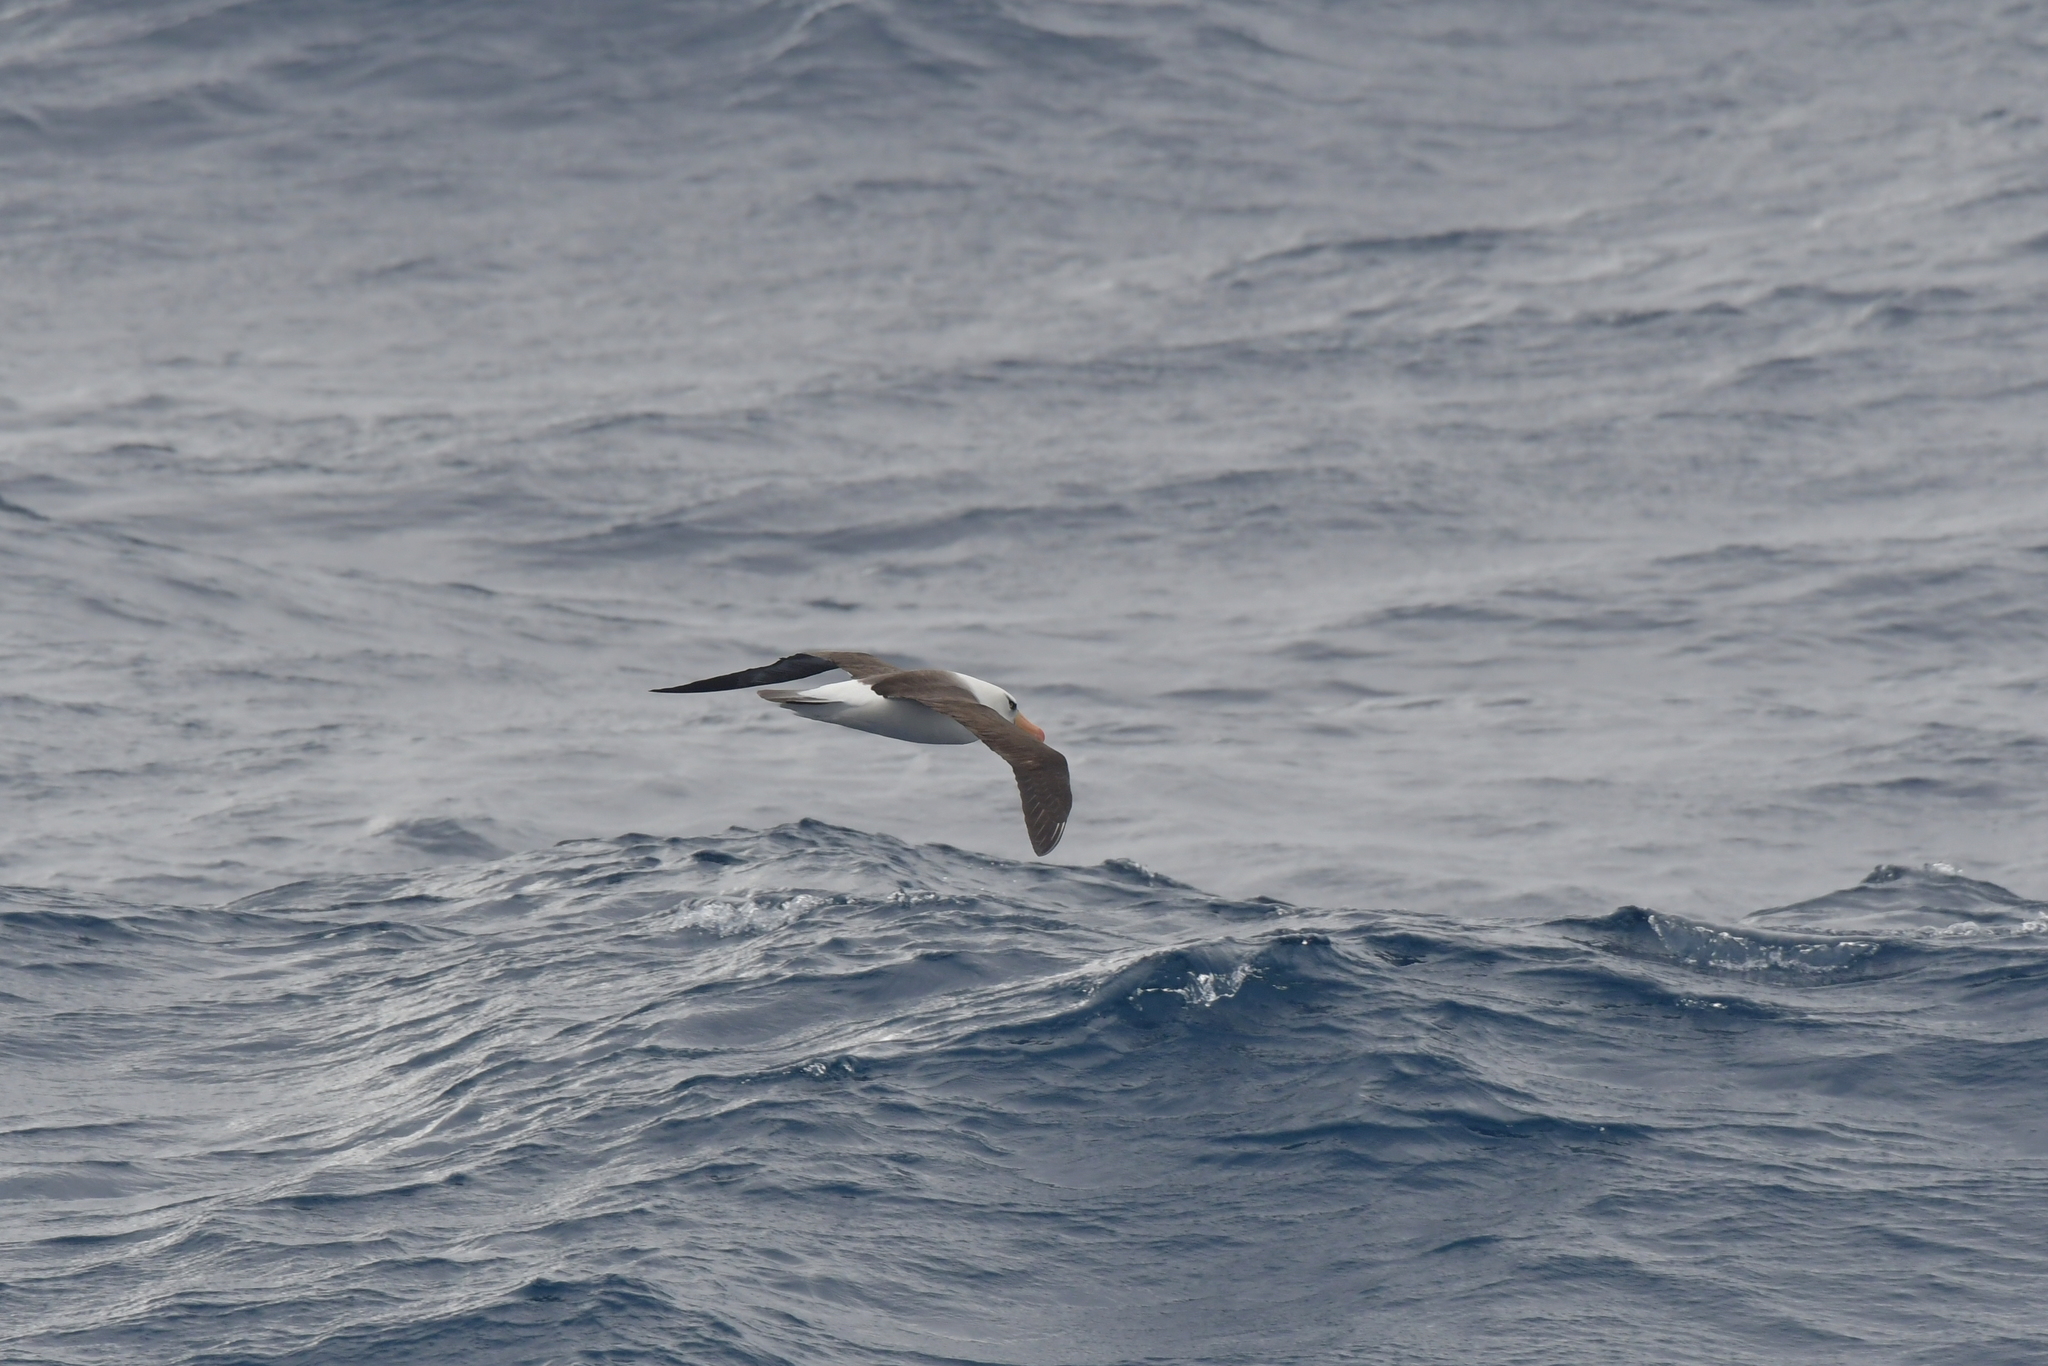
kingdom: Animalia
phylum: Chordata
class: Aves
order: Procellariiformes
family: Diomedeidae
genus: Thalassarche
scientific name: Thalassarche impavida
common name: Campbell albatross
